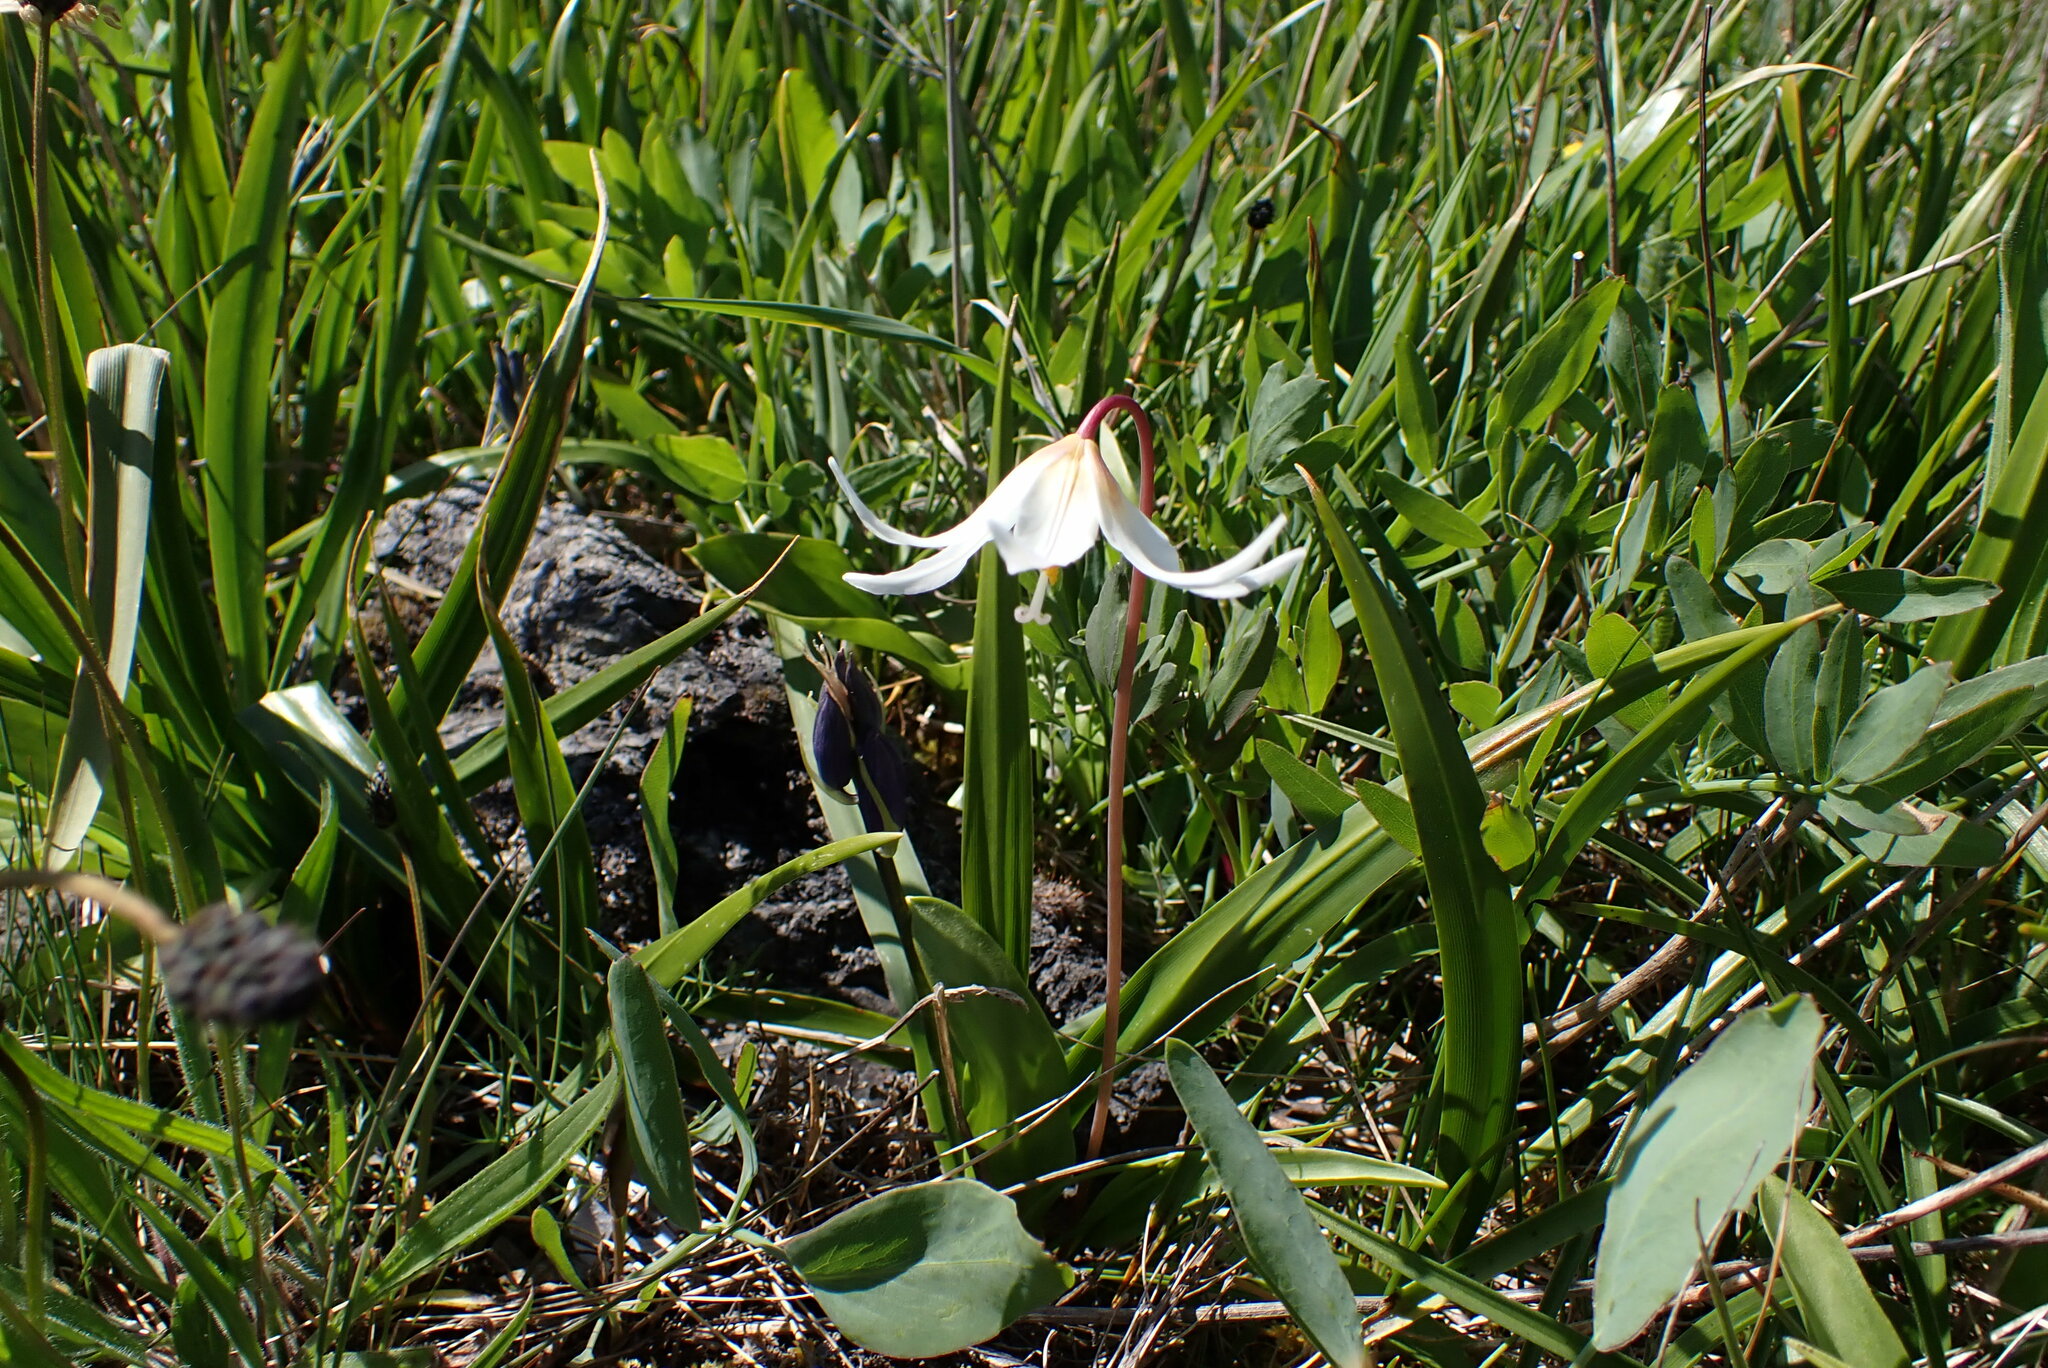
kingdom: Plantae
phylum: Tracheophyta
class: Liliopsida
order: Liliales
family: Liliaceae
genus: Erythronium
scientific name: Erythronium oregonum
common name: Giant adder's-tongue
